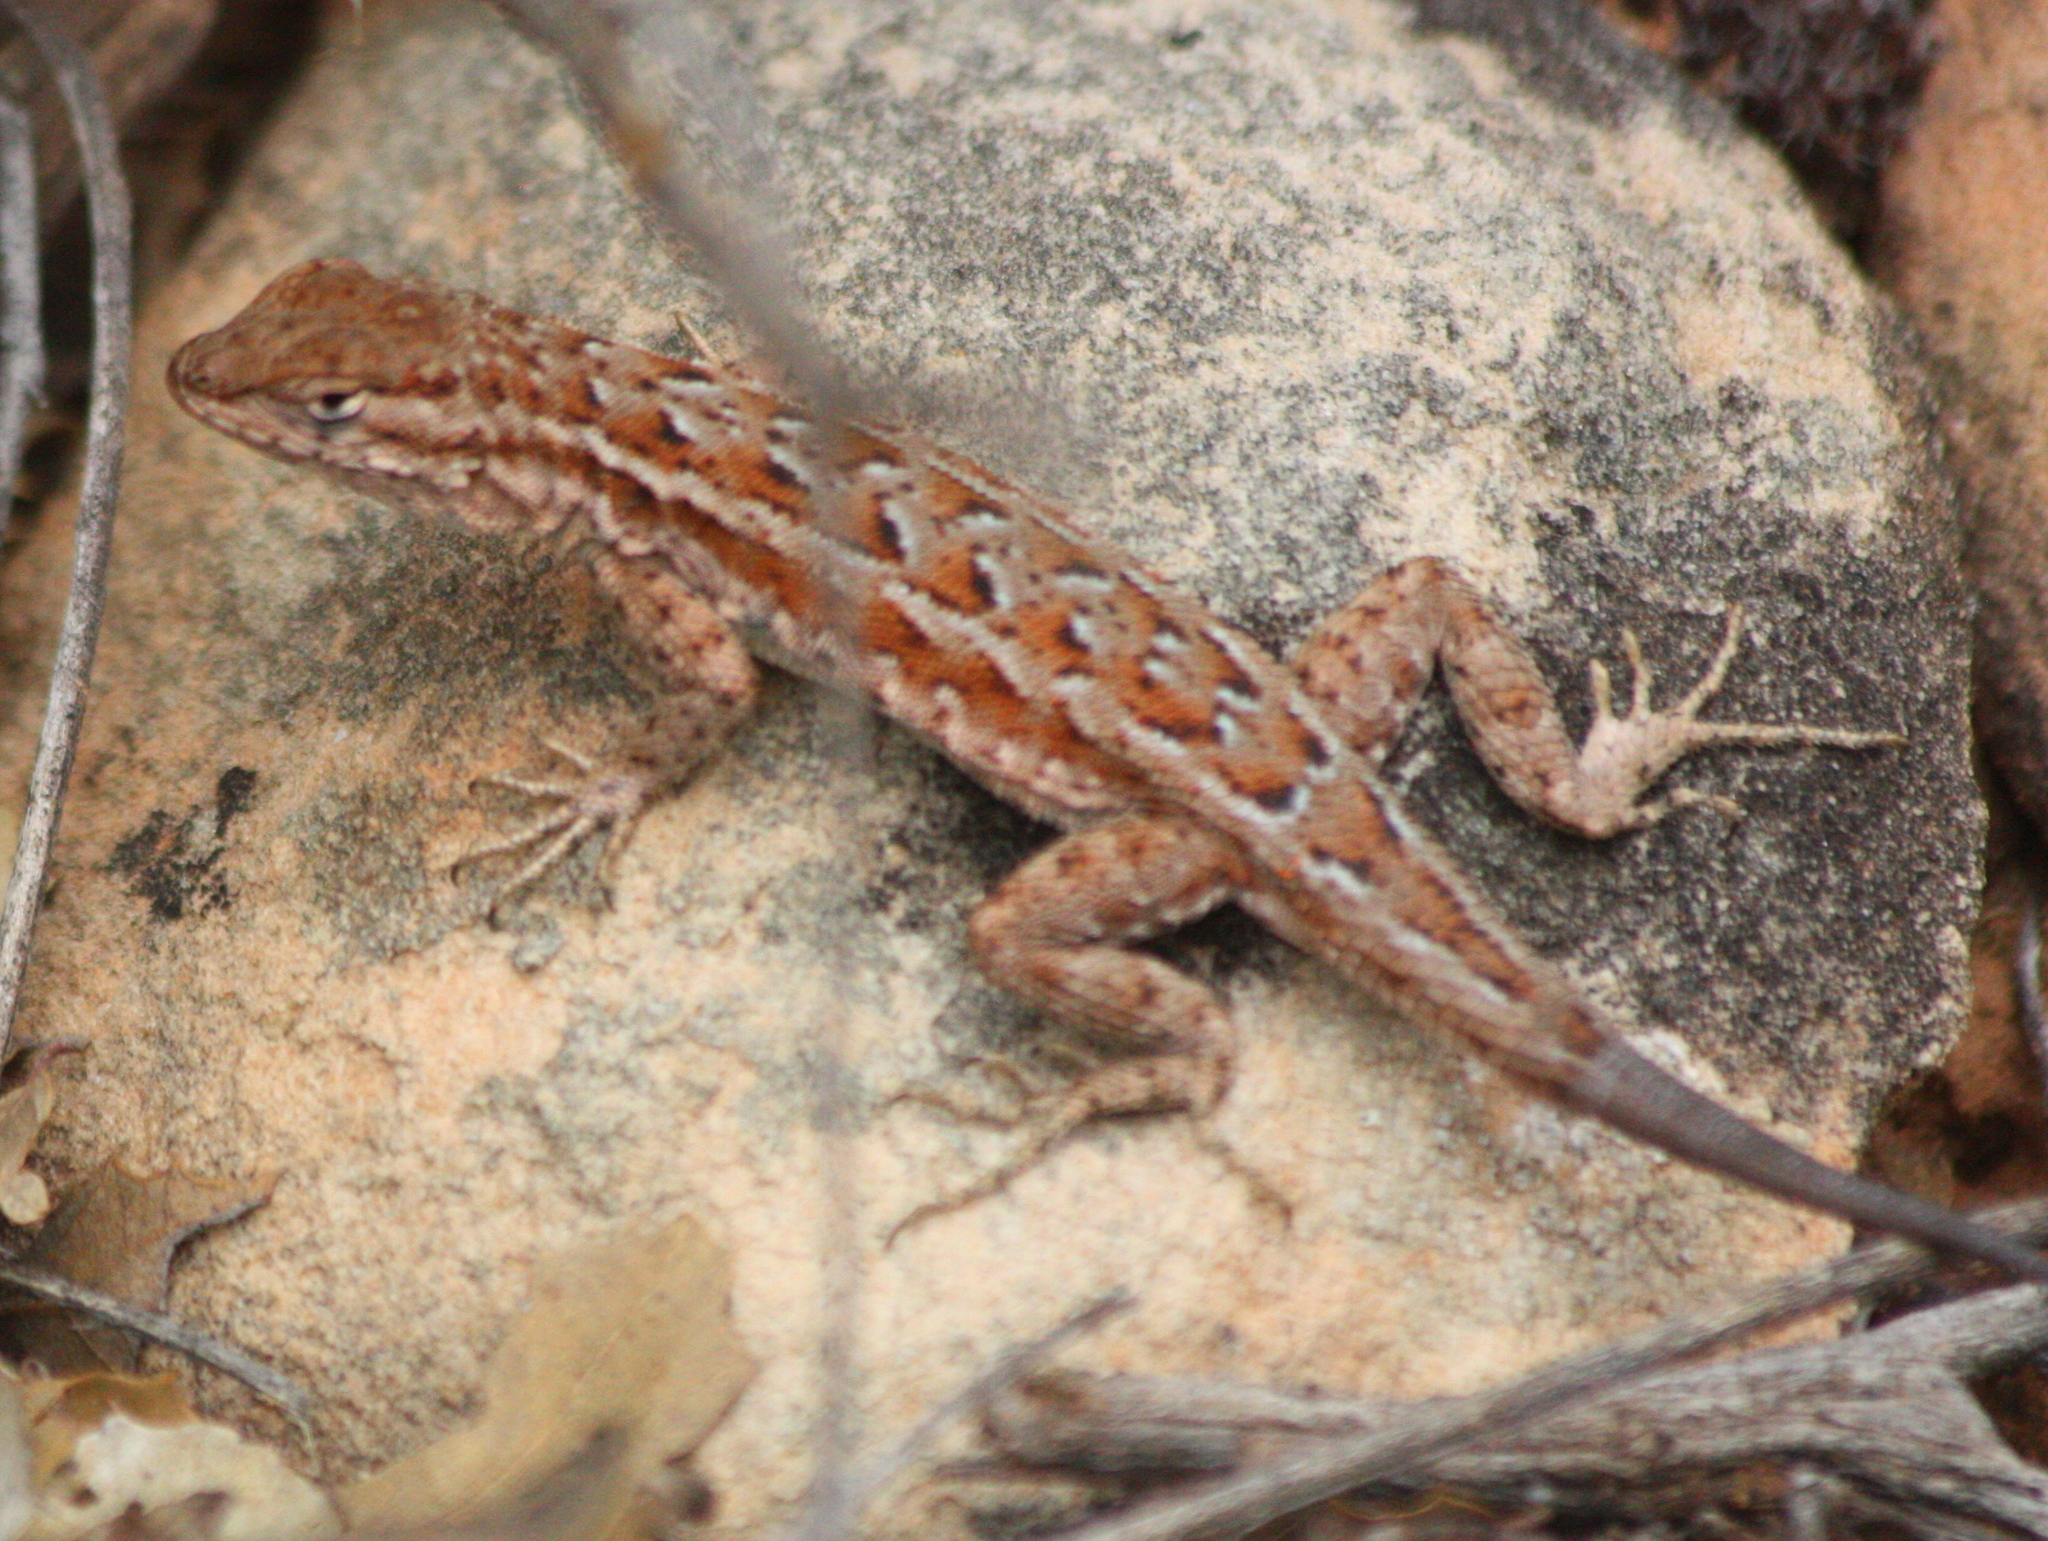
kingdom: Animalia
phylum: Chordata
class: Squamata
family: Phrynosomatidae
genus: Uta
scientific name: Uta stansburiana
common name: Side-blotched lizard
